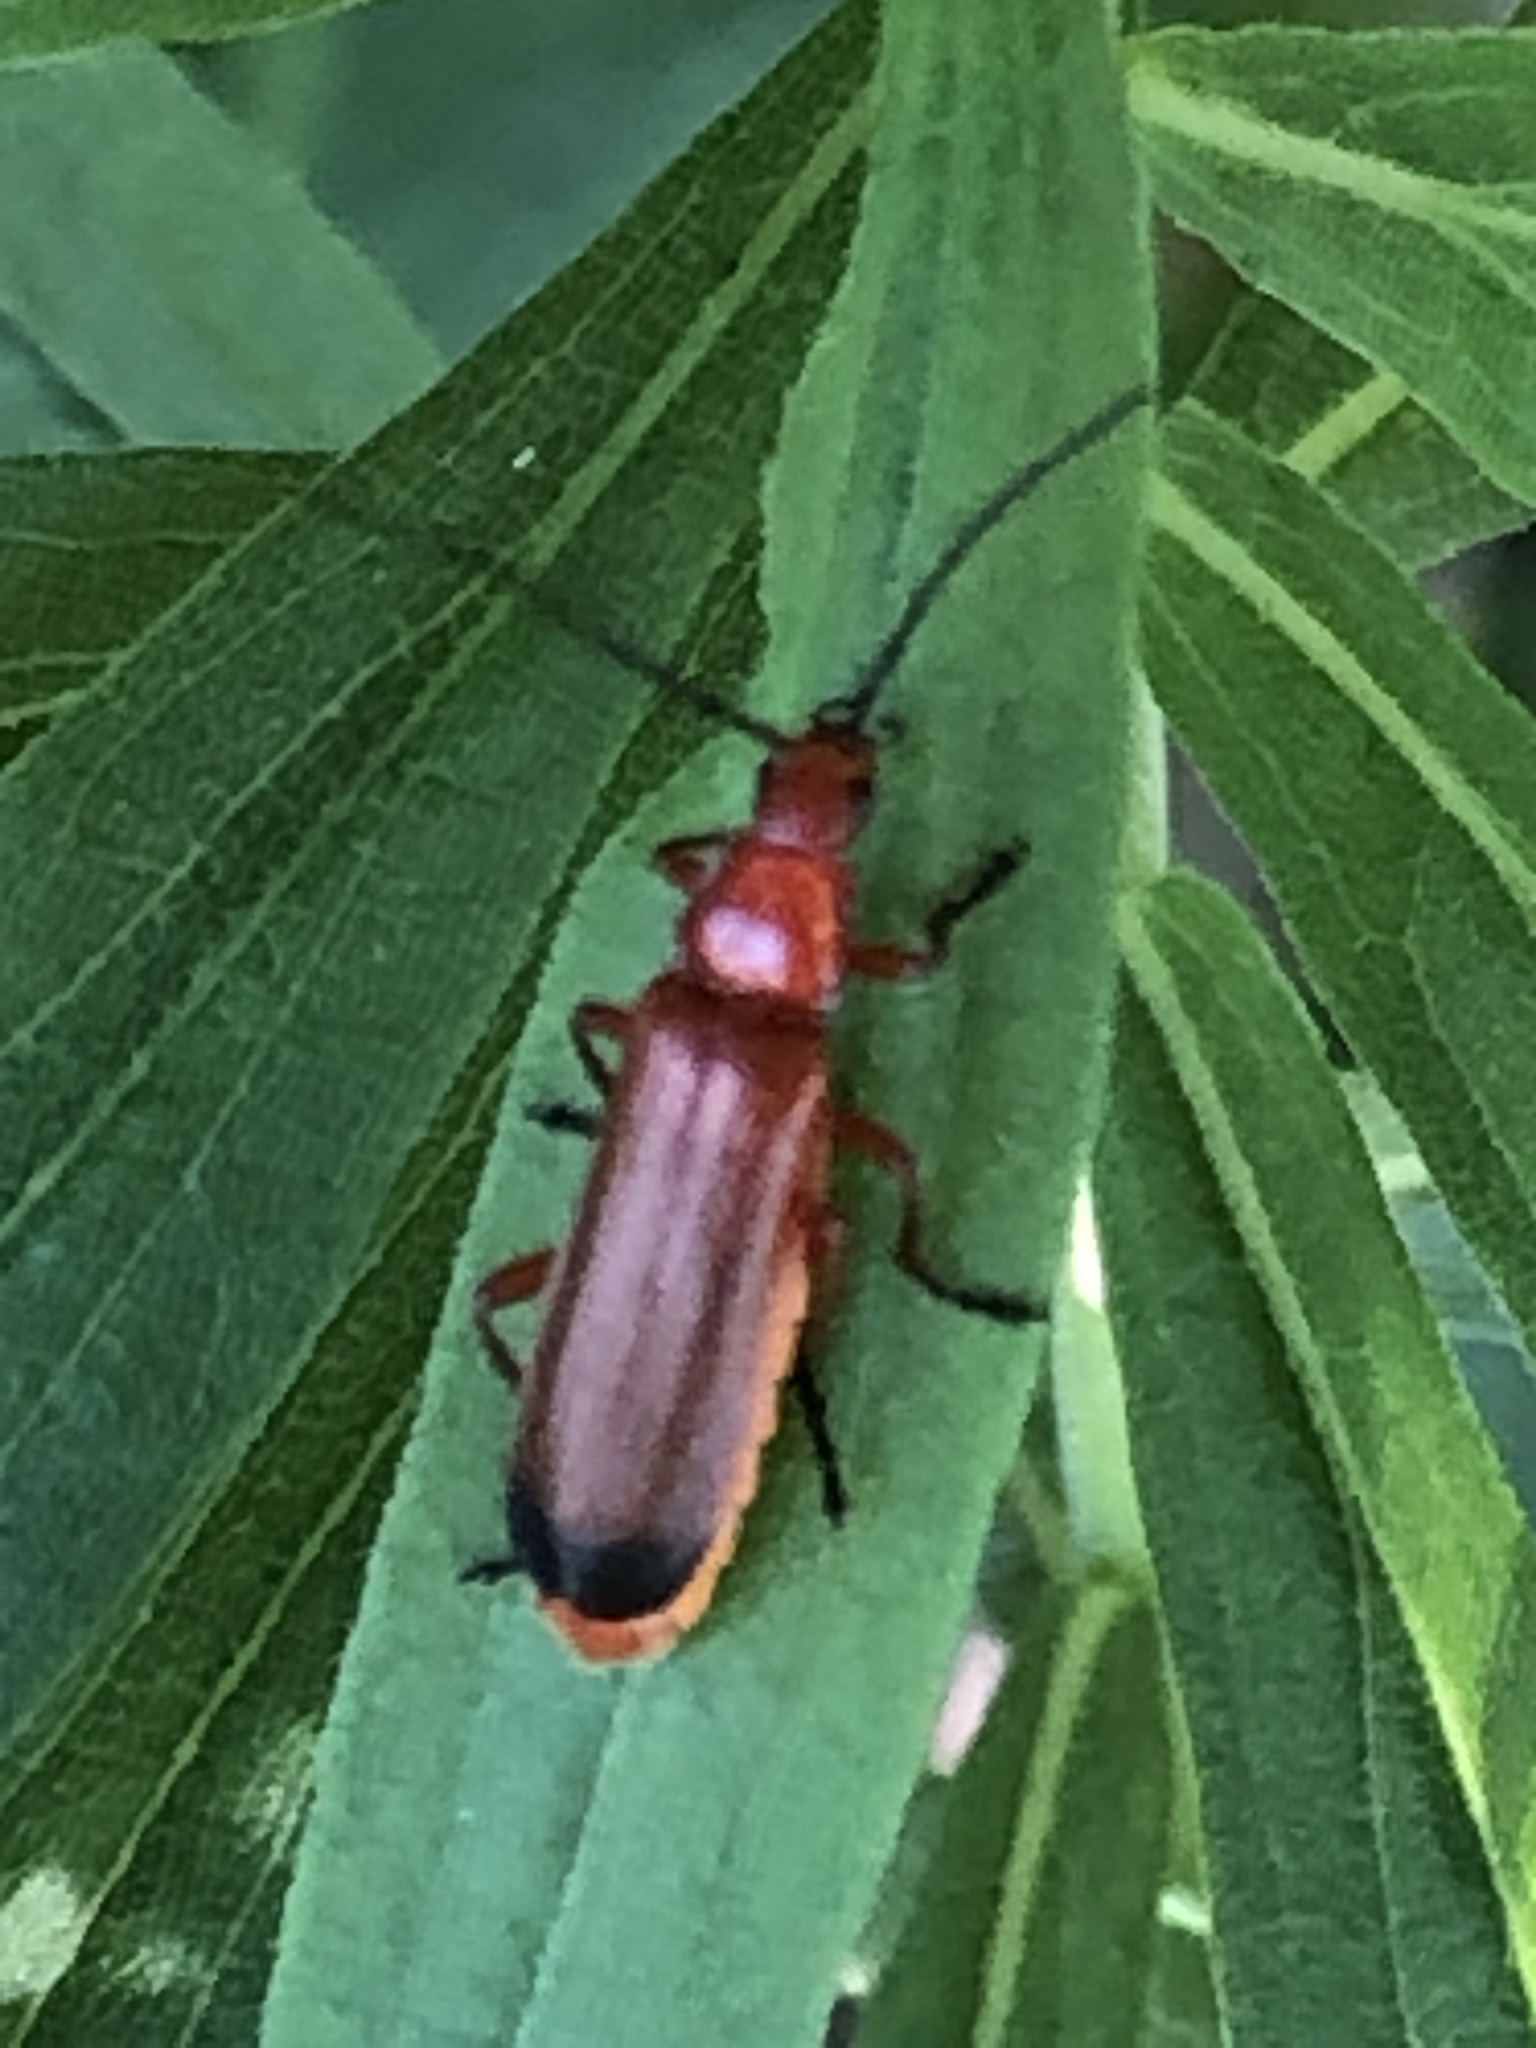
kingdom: Animalia
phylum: Arthropoda
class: Insecta
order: Coleoptera
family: Cantharidae
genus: Rhagonycha
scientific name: Rhagonycha fulva
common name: Common red soldier beetle
